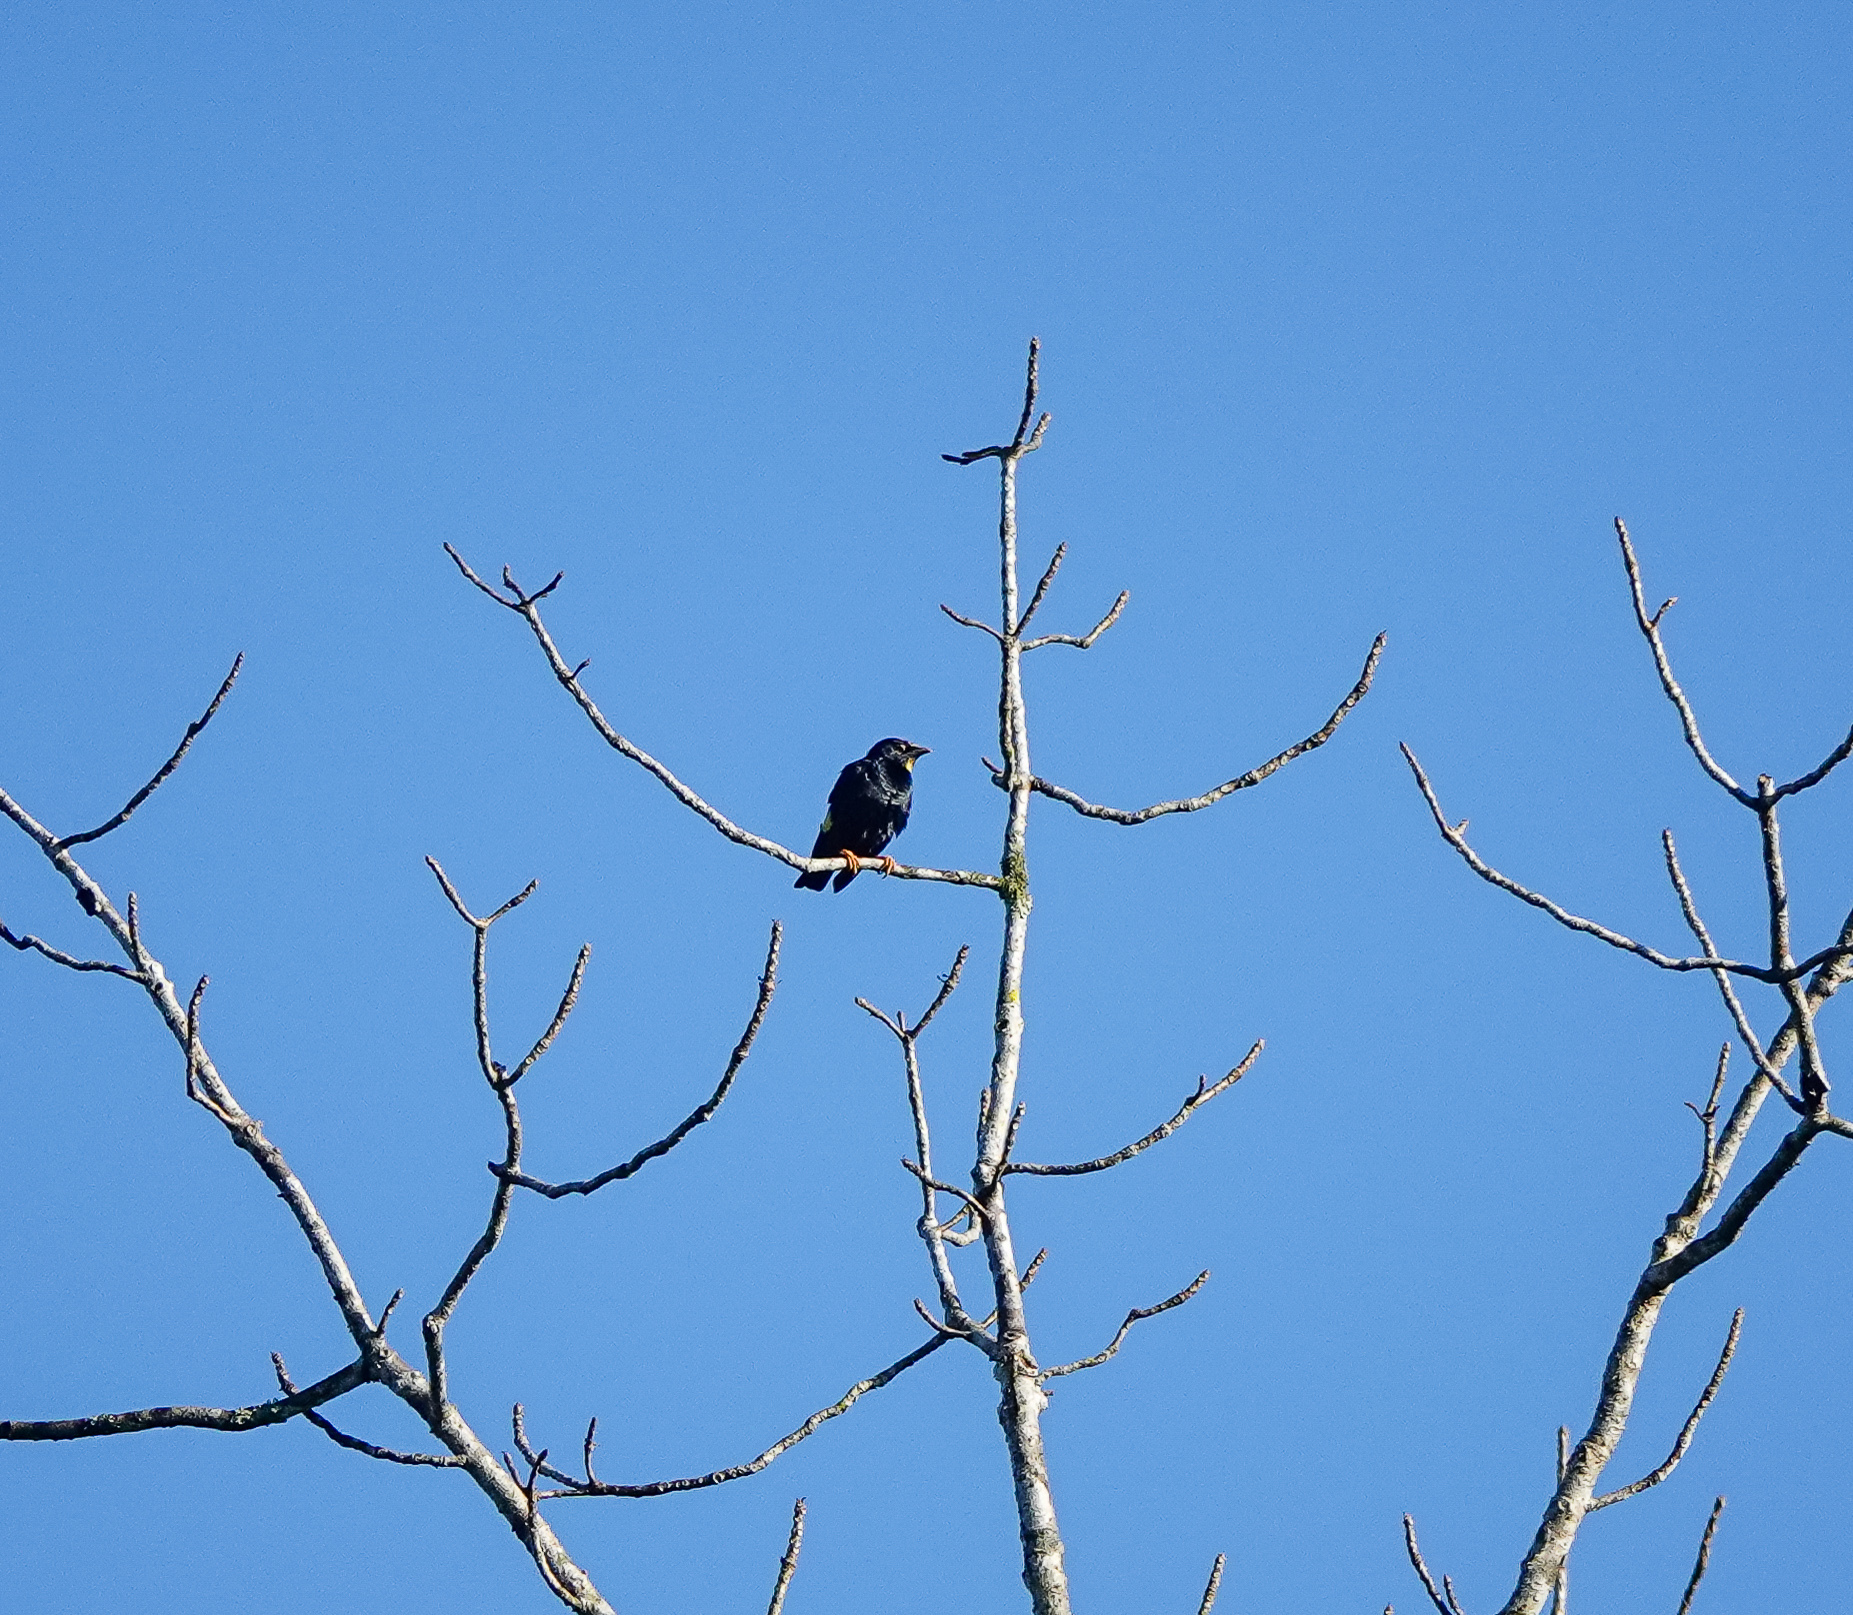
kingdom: Animalia
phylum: Chordata
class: Aves
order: Passeriformes
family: Sturnidae
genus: Ampeliceps
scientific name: Ampeliceps coronatus
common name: Golden-crested myna
